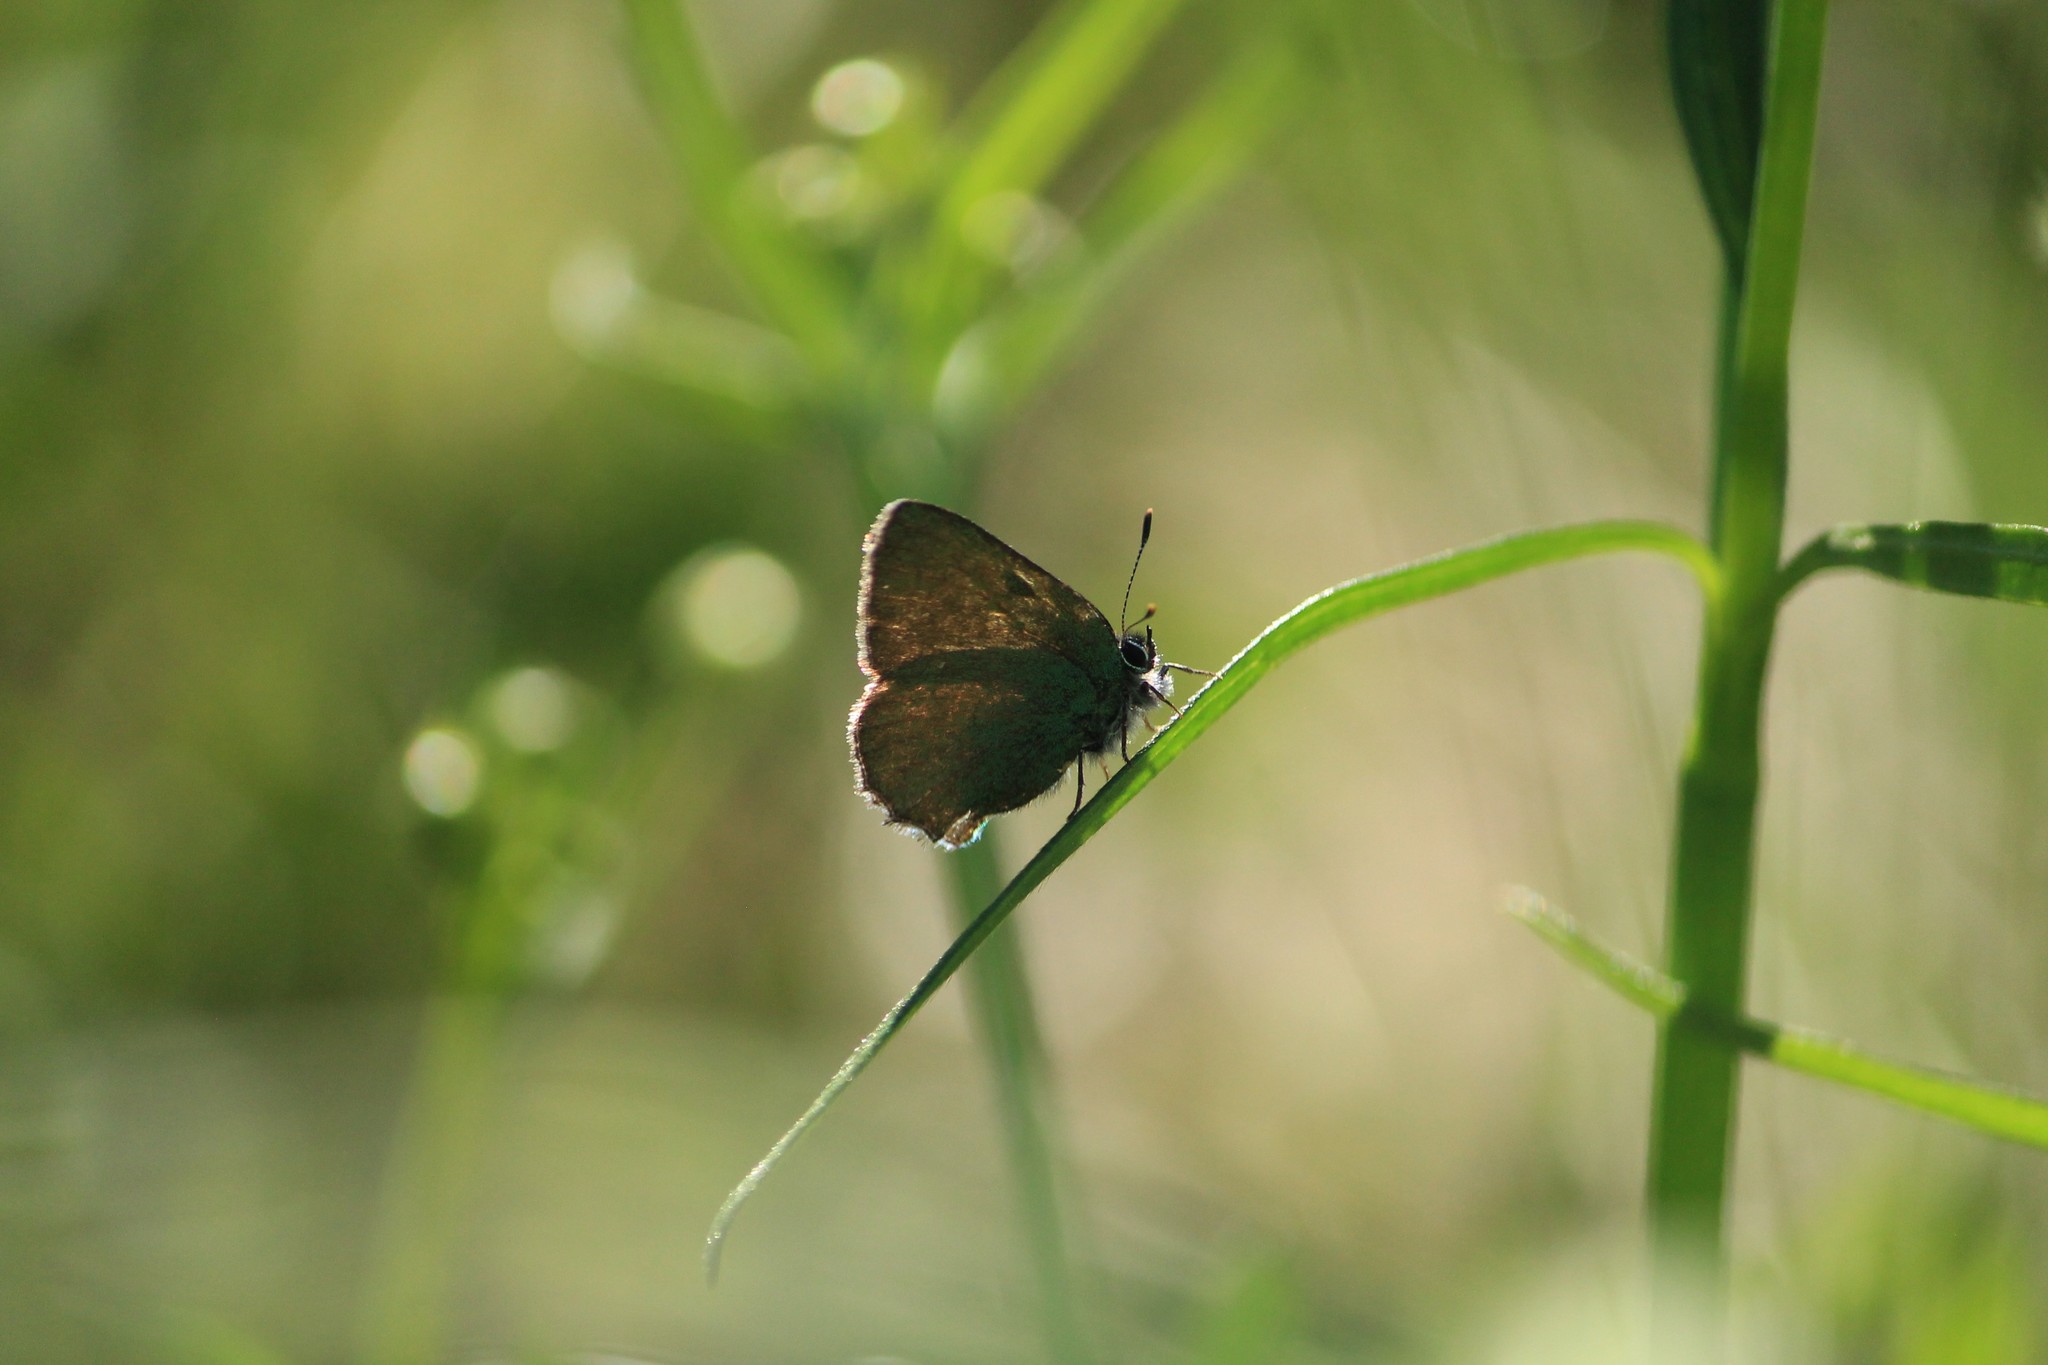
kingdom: Animalia
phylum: Arthropoda
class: Insecta
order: Lepidoptera
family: Lycaenidae
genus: Callophrys
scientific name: Callophrys rubi
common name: Green hairstreak
